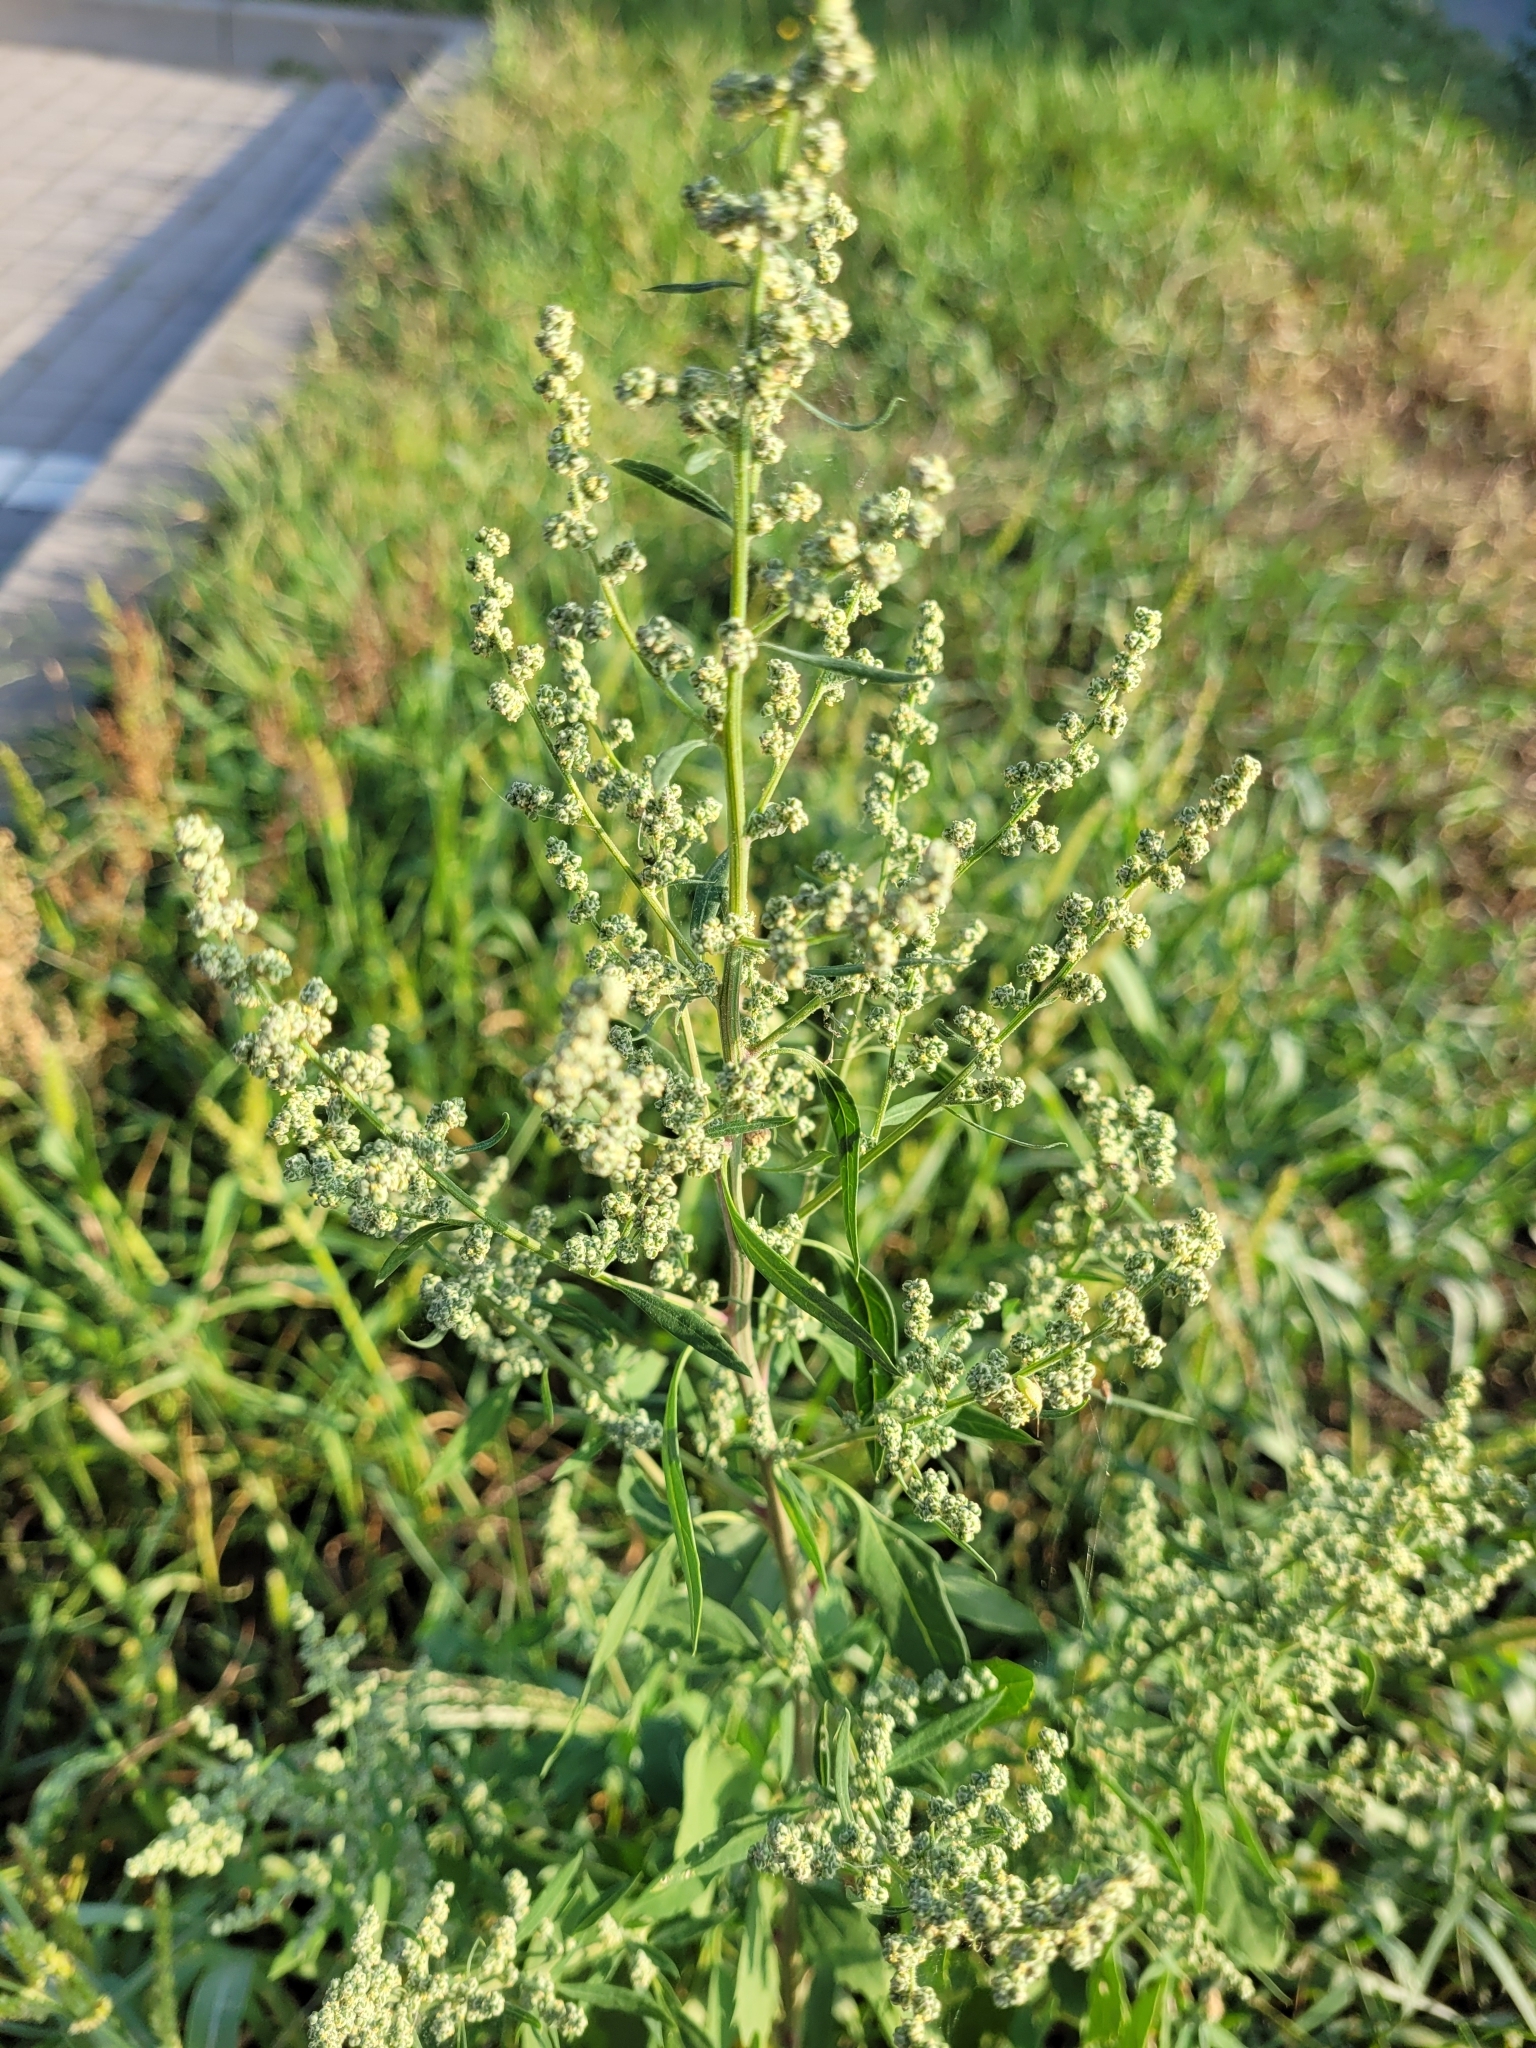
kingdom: Plantae
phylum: Tracheophyta
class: Magnoliopsida
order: Caryophyllales
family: Amaranthaceae
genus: Chenopodium
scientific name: Chenopodium betaceum
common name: Striped goosefoot
